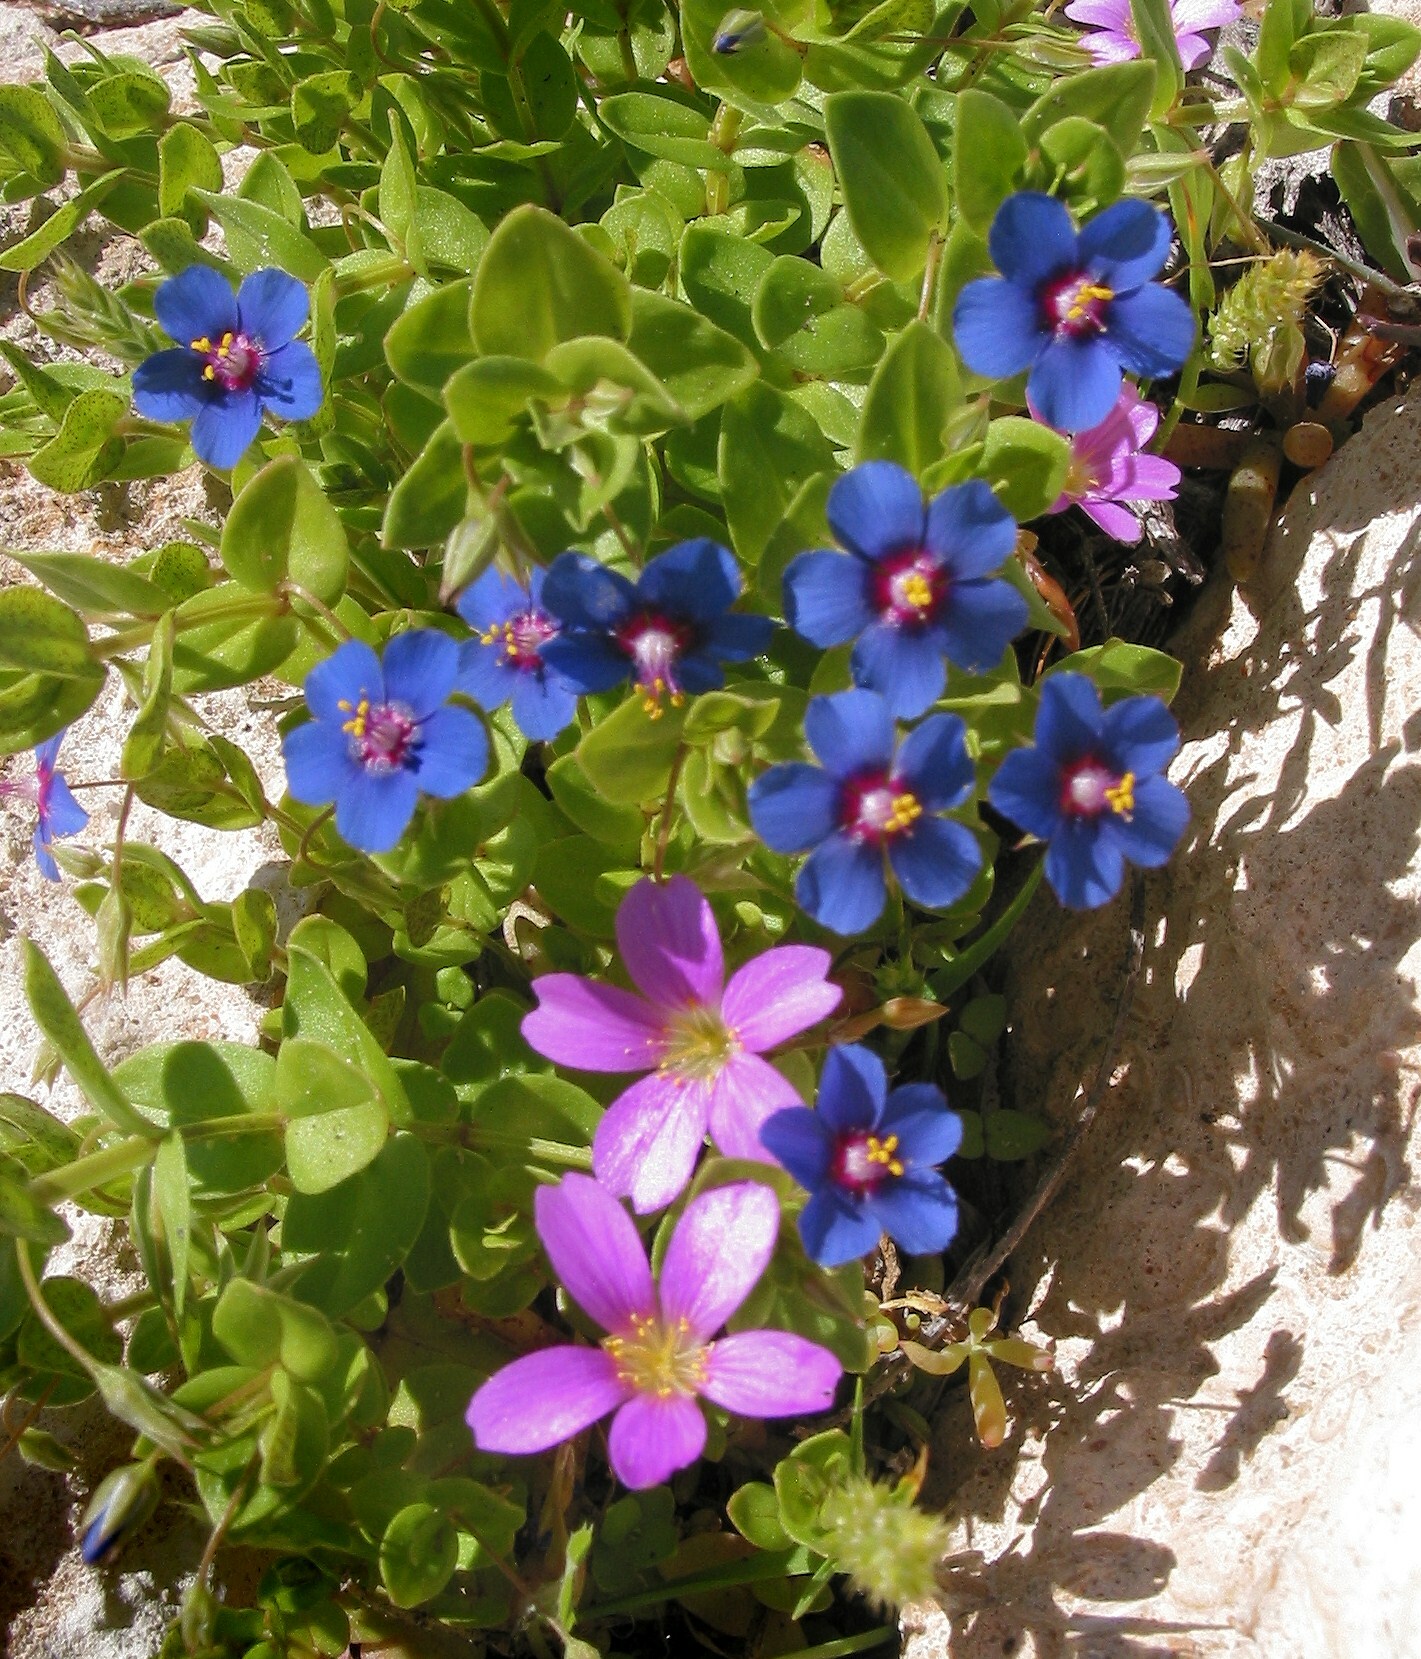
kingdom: Plantae
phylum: Tracheophyta
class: Magnoliopsida
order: Ericales
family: Primulaceae
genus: Lysimachia
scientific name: Lysimachia loeflingii
